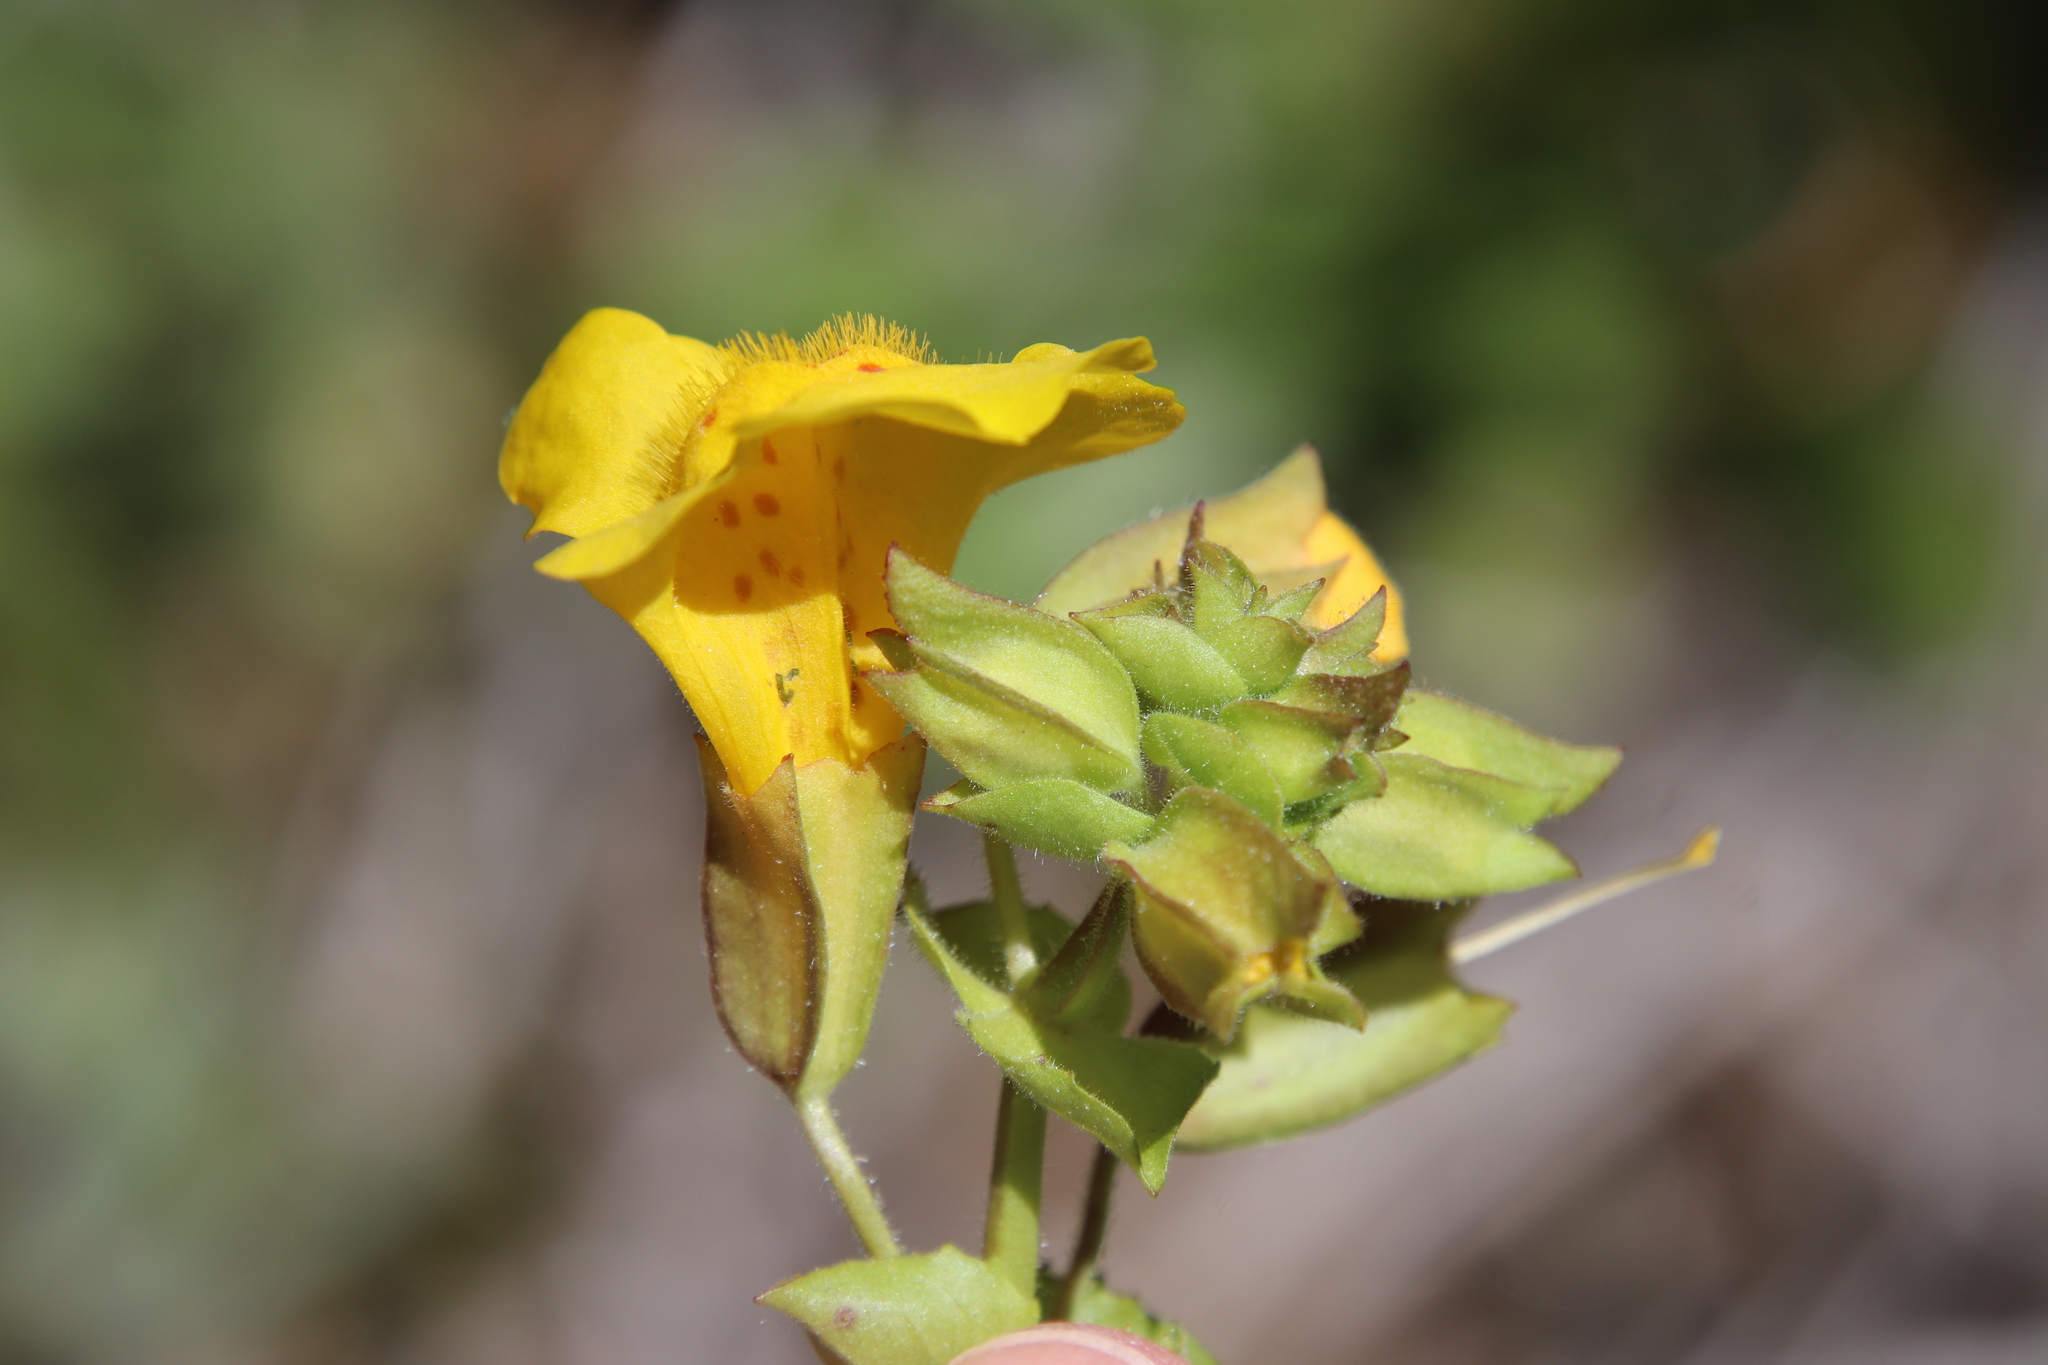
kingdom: Plantae
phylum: Tracheophyta
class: Magnoliopsida
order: Lamiales
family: Phrymaceae
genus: Erythranthe
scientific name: Erythranthe guttata
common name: Monkeyflower
